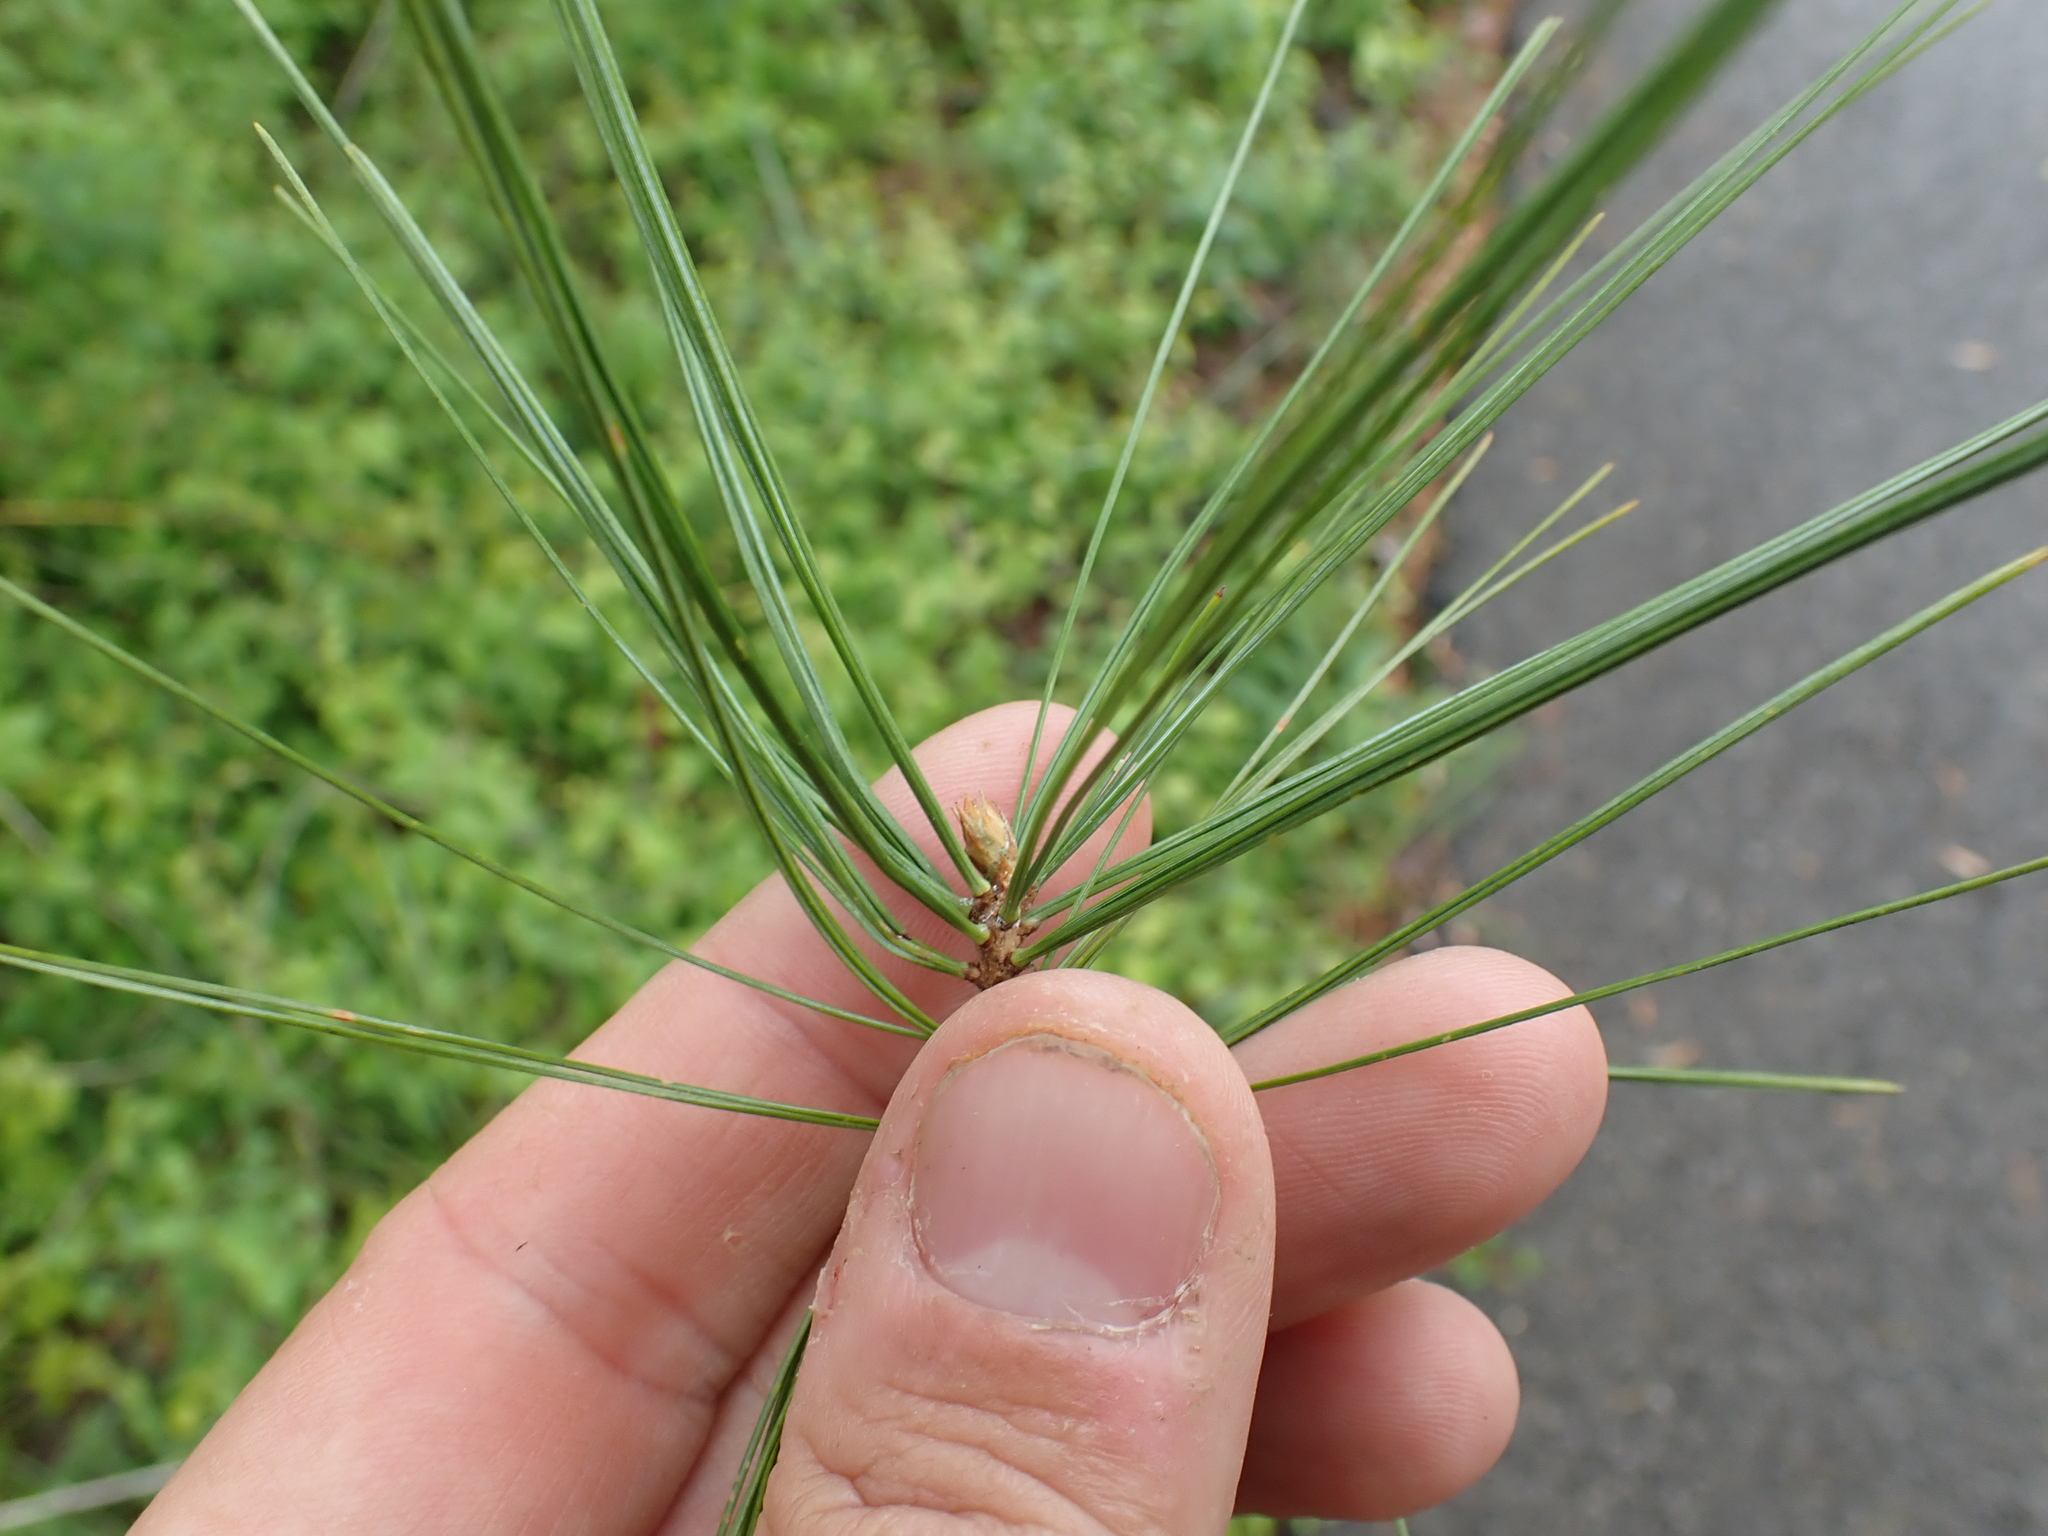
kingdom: Plantae
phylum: Tracheophyta
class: Pinopsida
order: Pinales
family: Pinaceae
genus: Pinus
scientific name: Pinus strobus
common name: Weymouth pine
